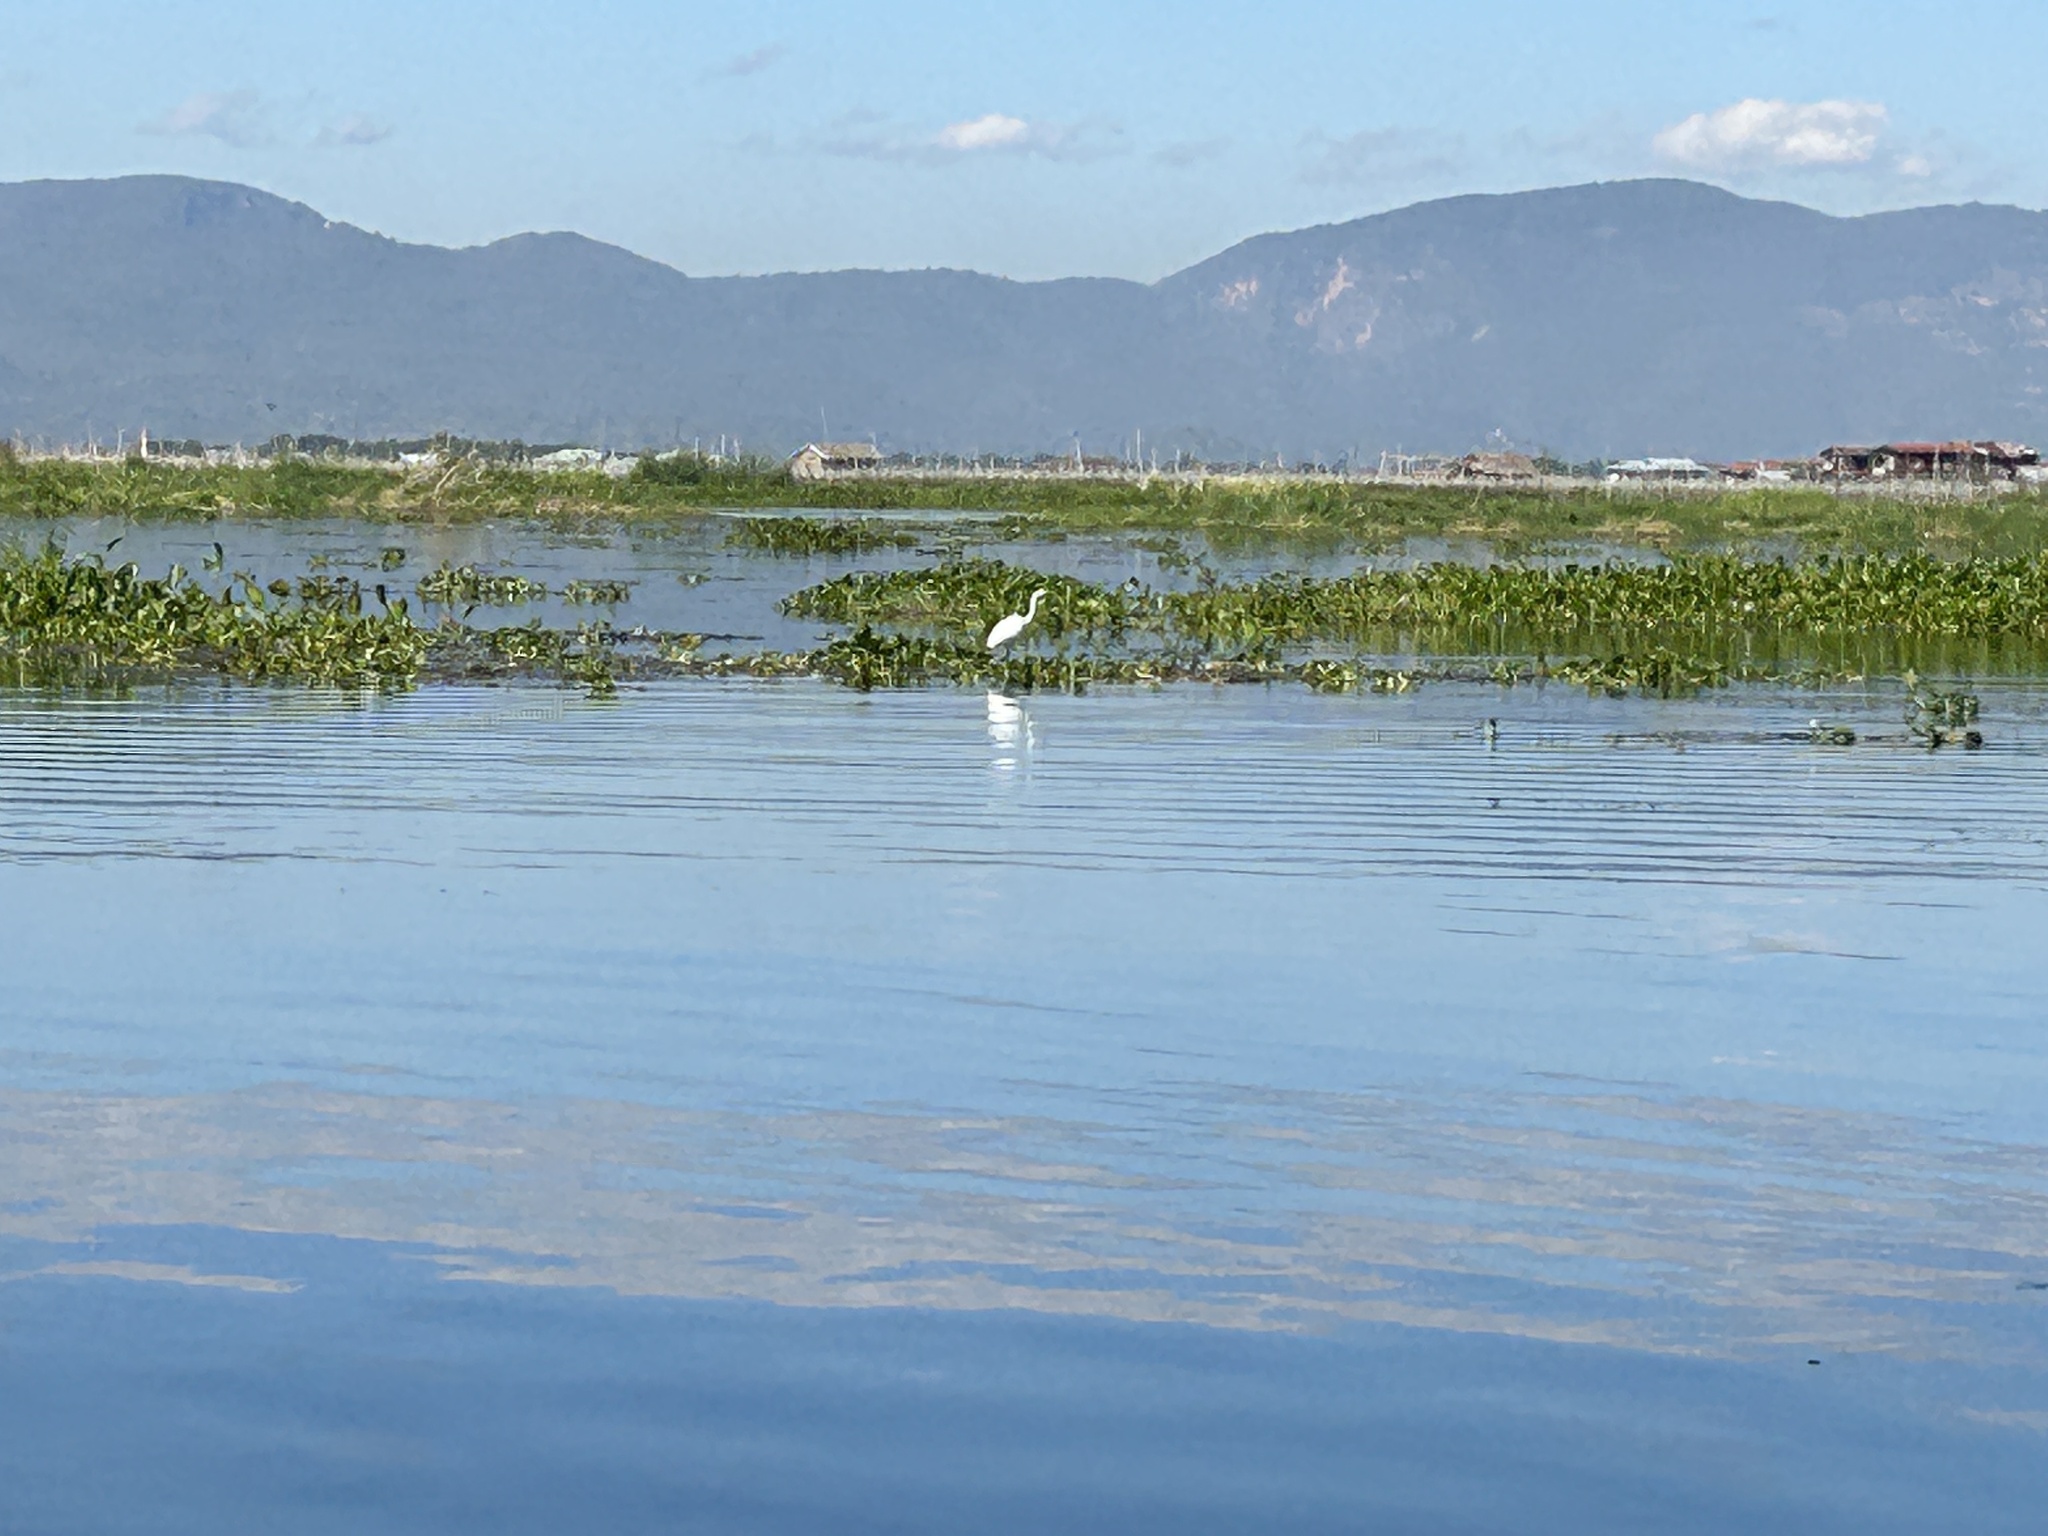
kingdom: Animalia
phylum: Chordata
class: Aves
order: Pelecaniformes
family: Ardeidae
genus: Egretta
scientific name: Egretta garzetta
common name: Little egret
